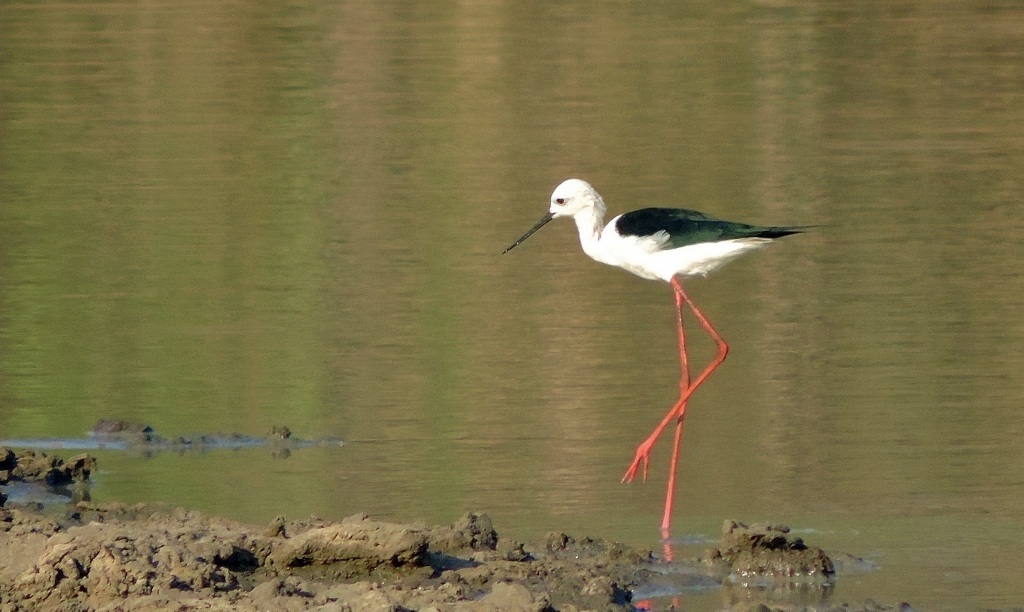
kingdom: Animalia
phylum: Chordata
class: Aves
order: Charadriiformes
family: Recurvirostridae
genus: Himantopus
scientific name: Himantopus himantopus
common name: Black-winged stilt
